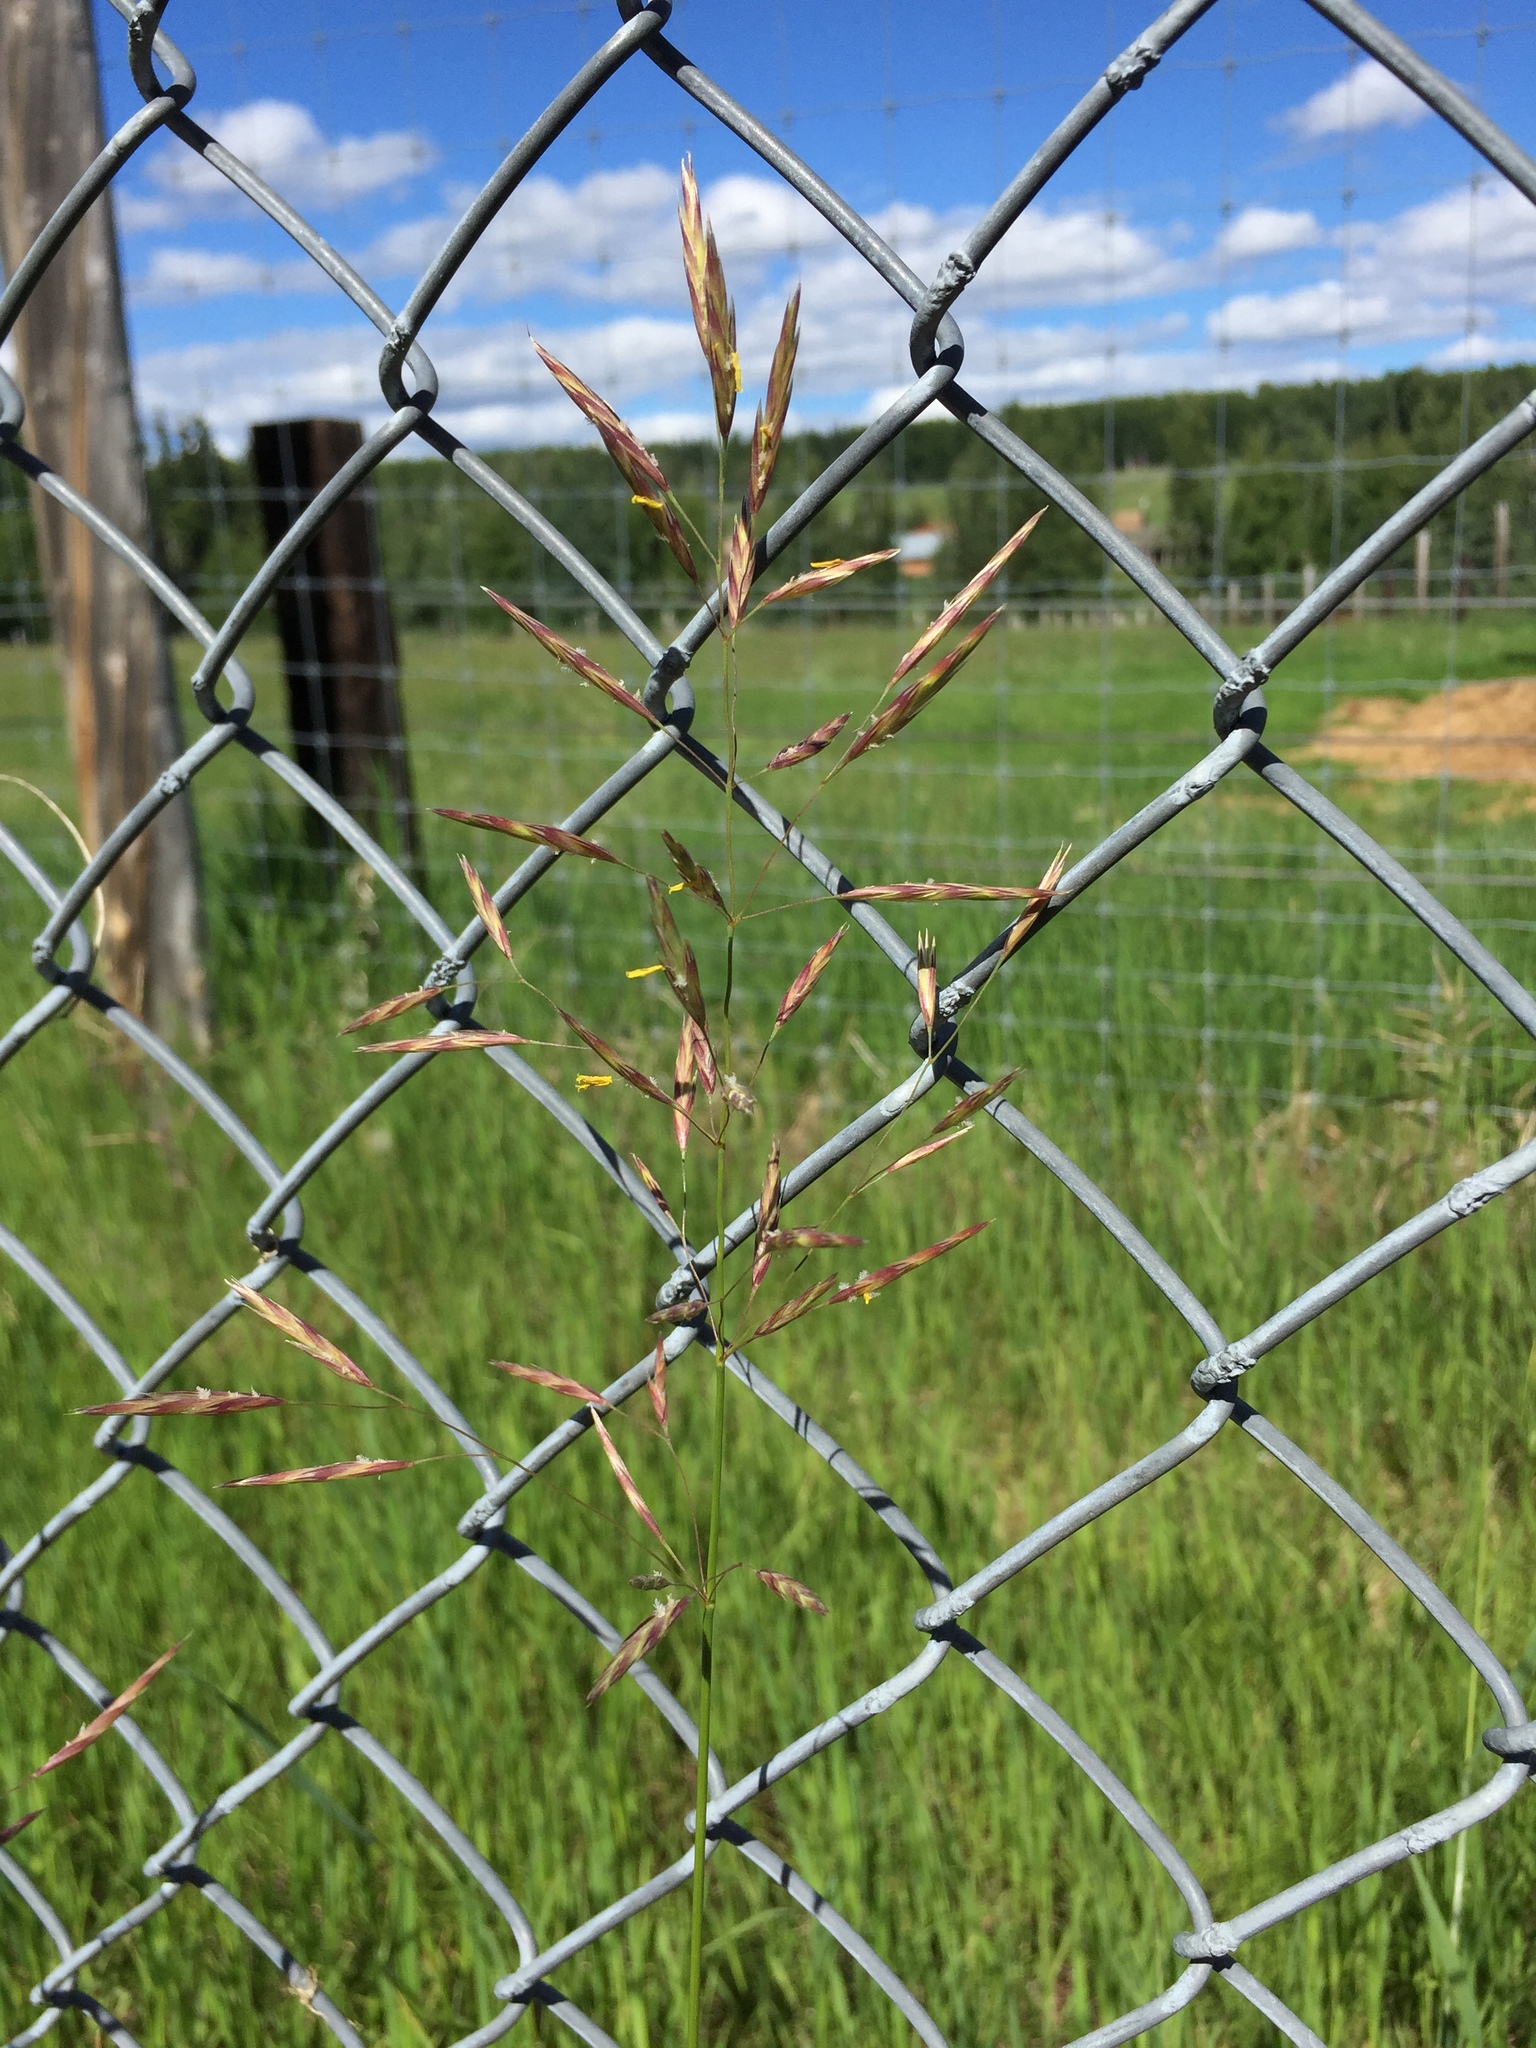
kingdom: Plantae
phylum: Tracheophyta
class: Liliopsida
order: Poales
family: Poaceae
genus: Bromus
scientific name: Bromus inermis
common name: Smooth brome
